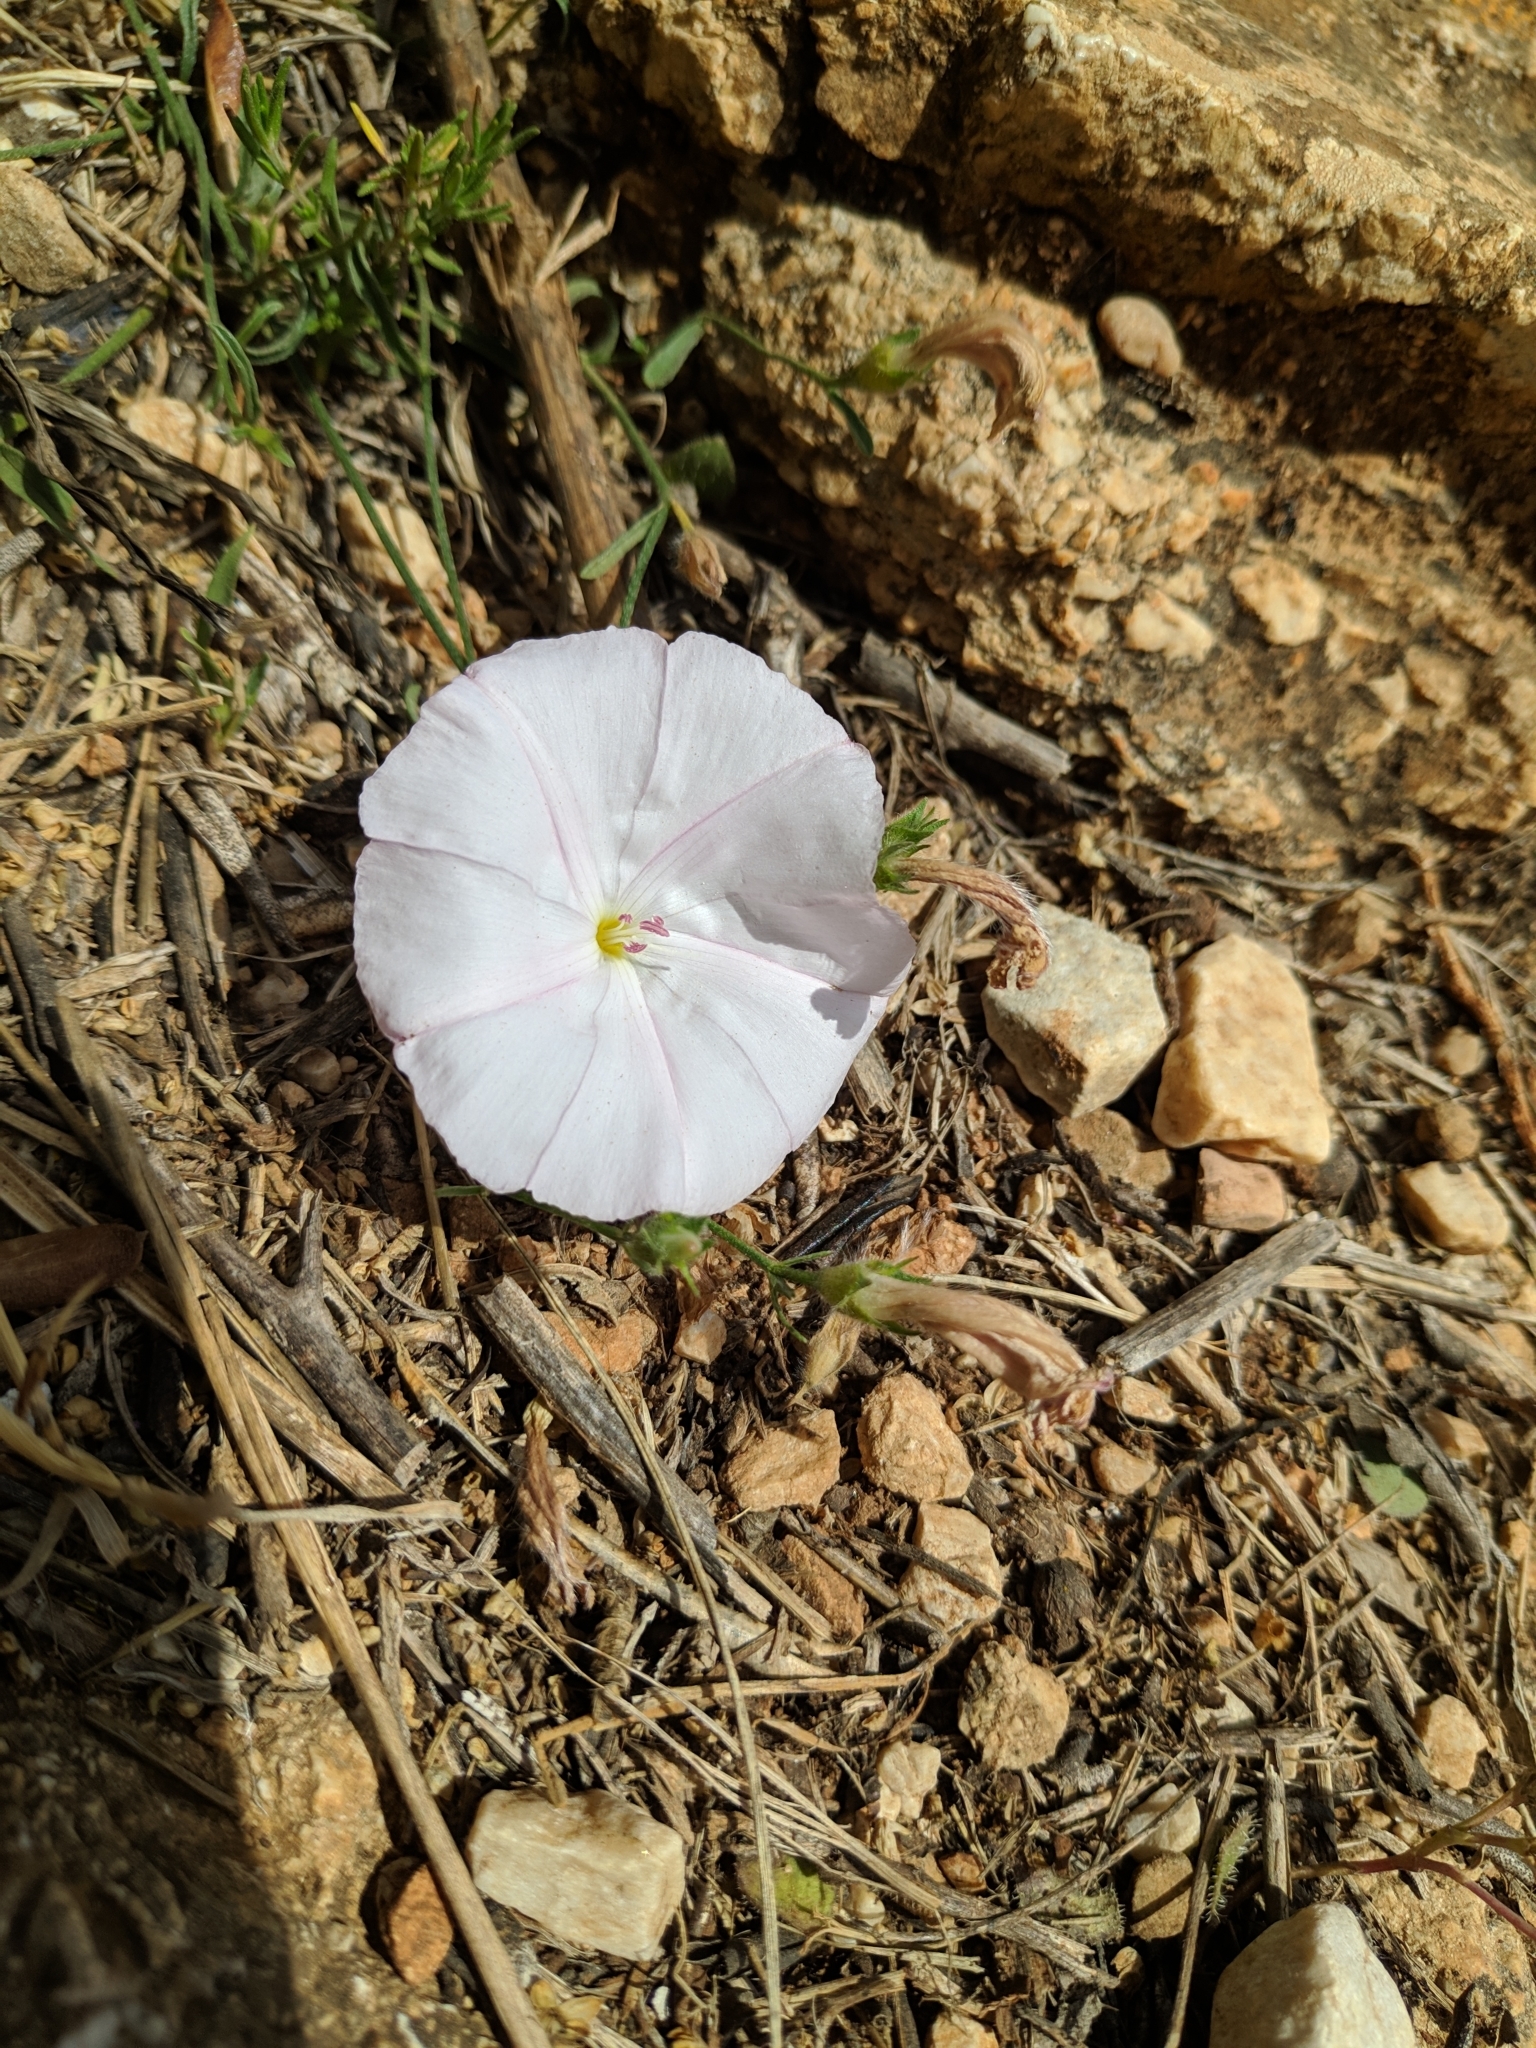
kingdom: Plantae
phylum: Tracheophyta
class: Magnoliopsida
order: Solanales
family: Convolvulaceae
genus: Convolvulus
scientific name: Convolvulus cantabrica
